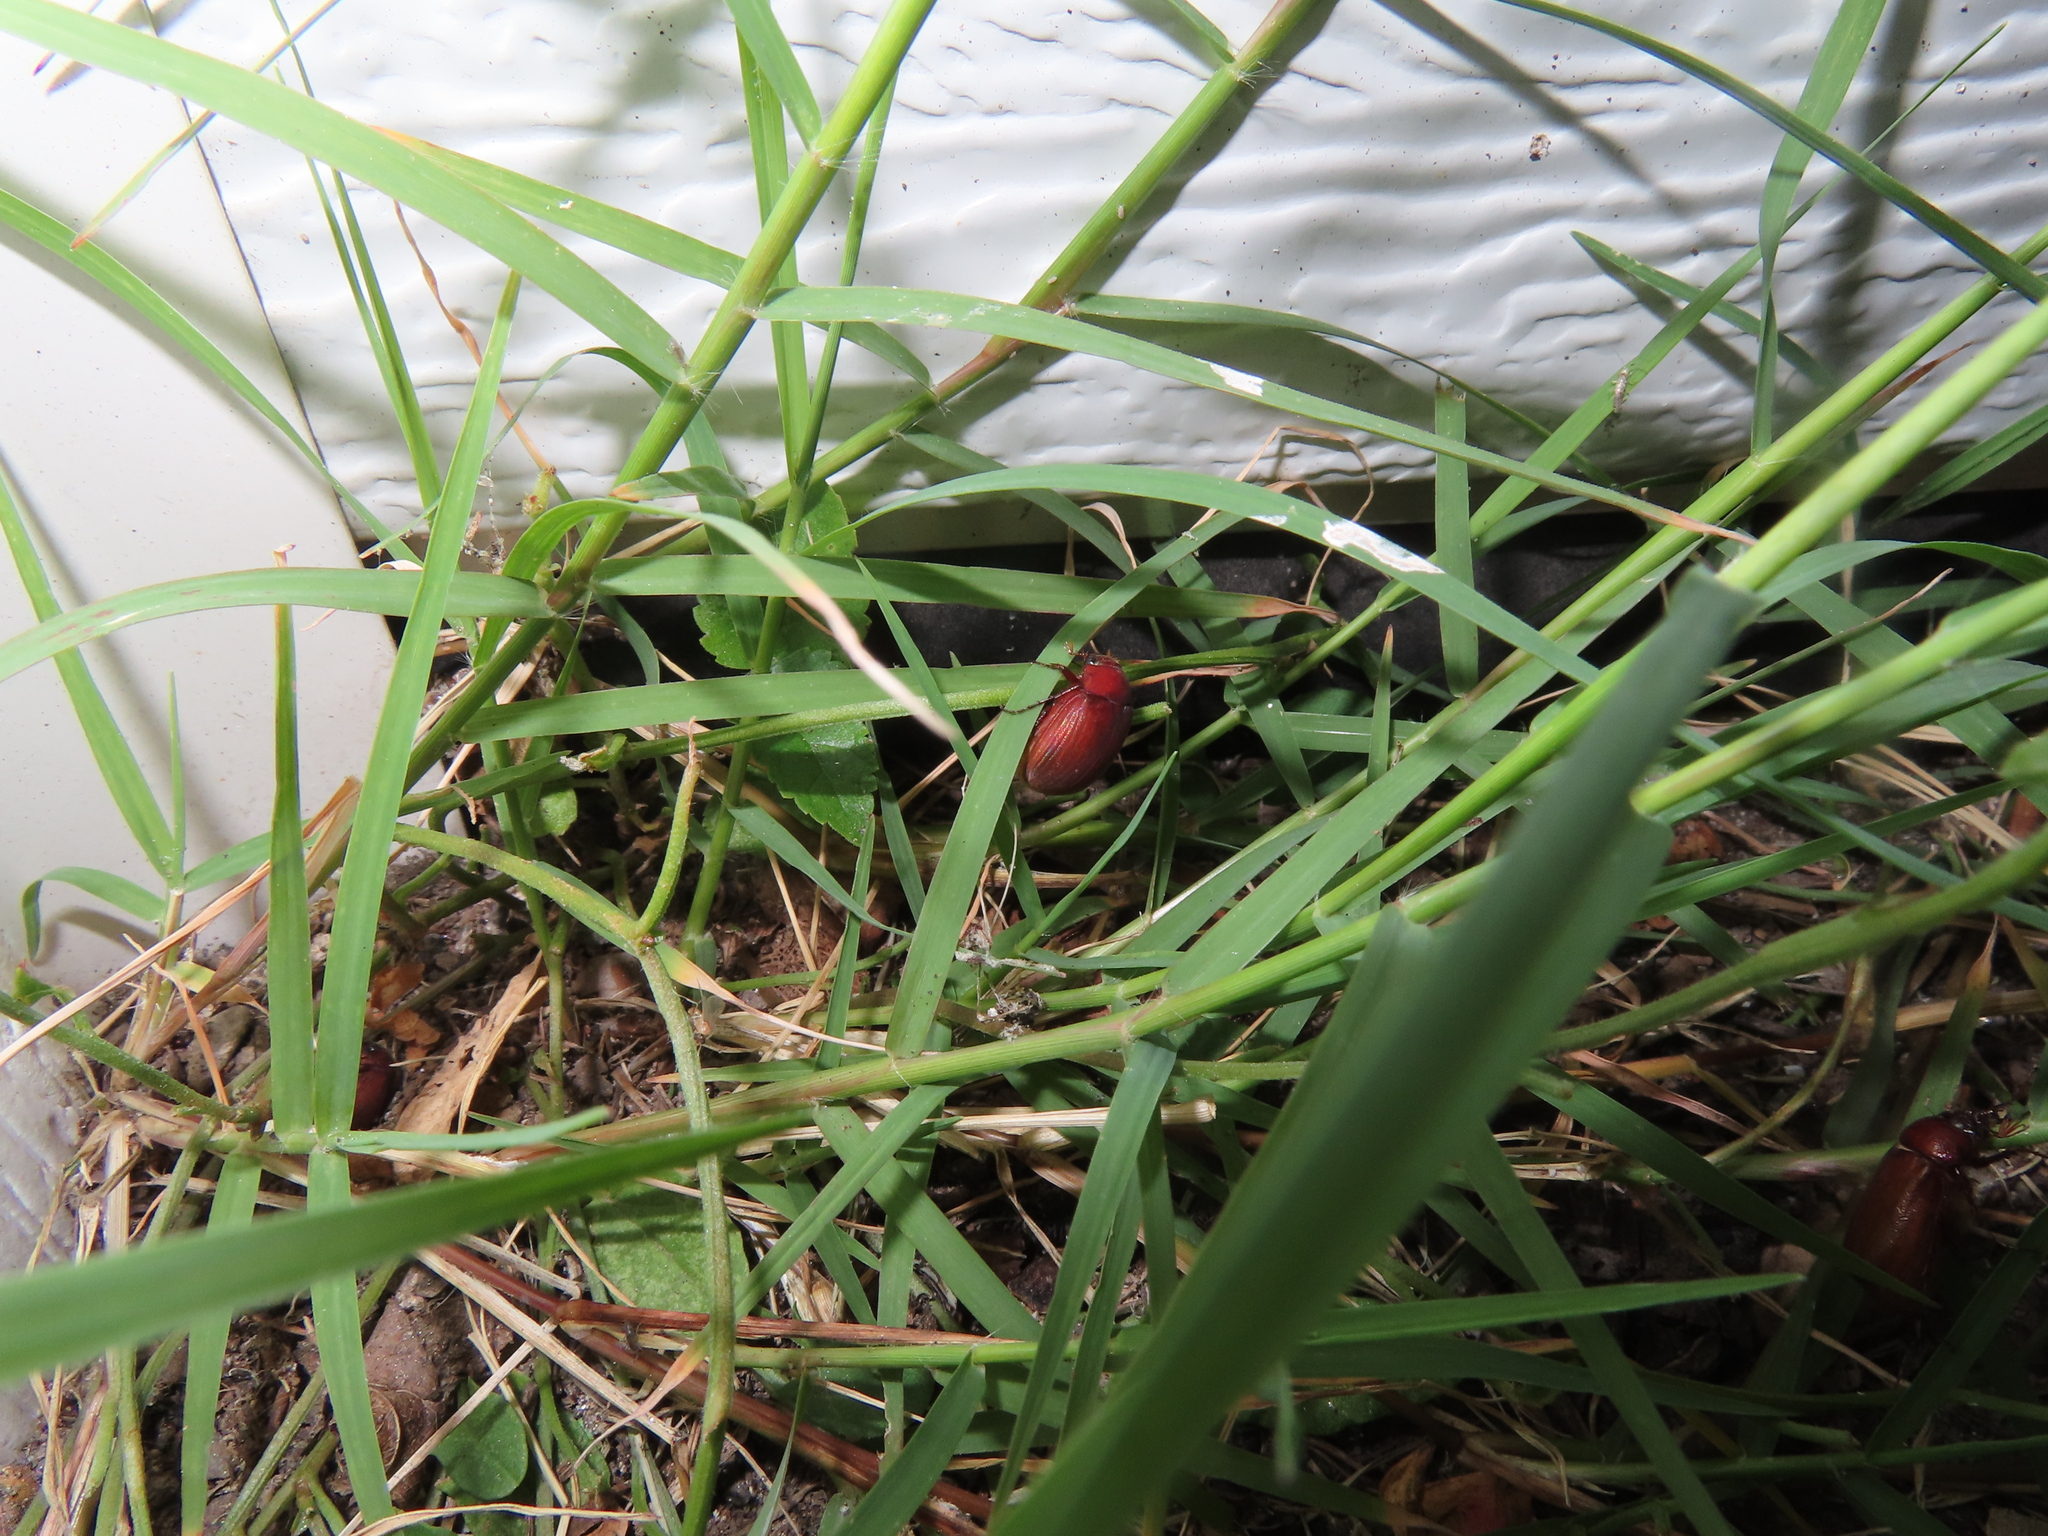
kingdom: Animalia
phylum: Arthropoda
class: Insecta
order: Coleoptera
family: Scarabaeidae
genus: Maladera
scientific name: Maladera formosae
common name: Asiatic garden beetle
